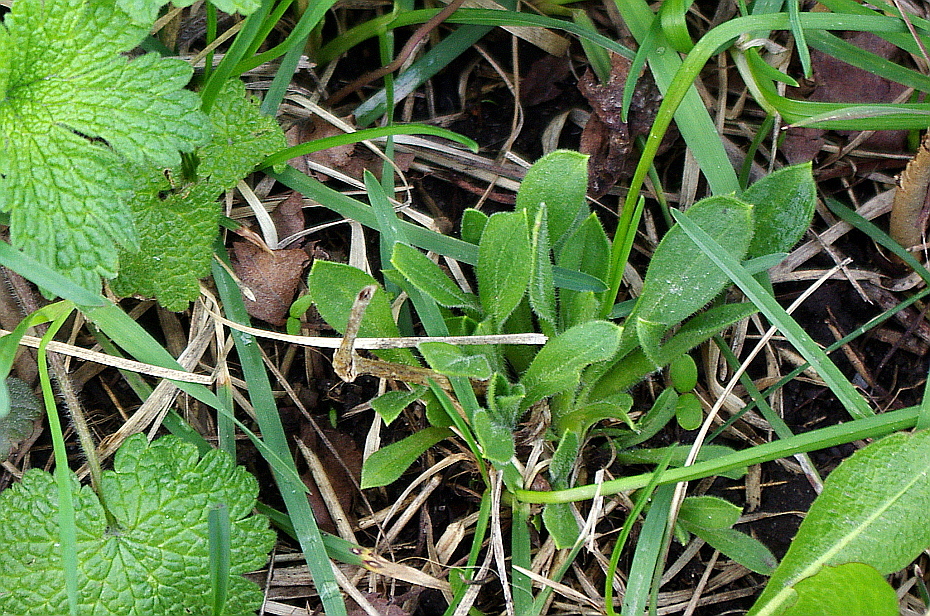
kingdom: Plantae
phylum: Tracheophyta
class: Magnoliopsida
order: Caryophyllales
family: Caryophyllaceae
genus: Silene
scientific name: Silene latifolia
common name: White campion
